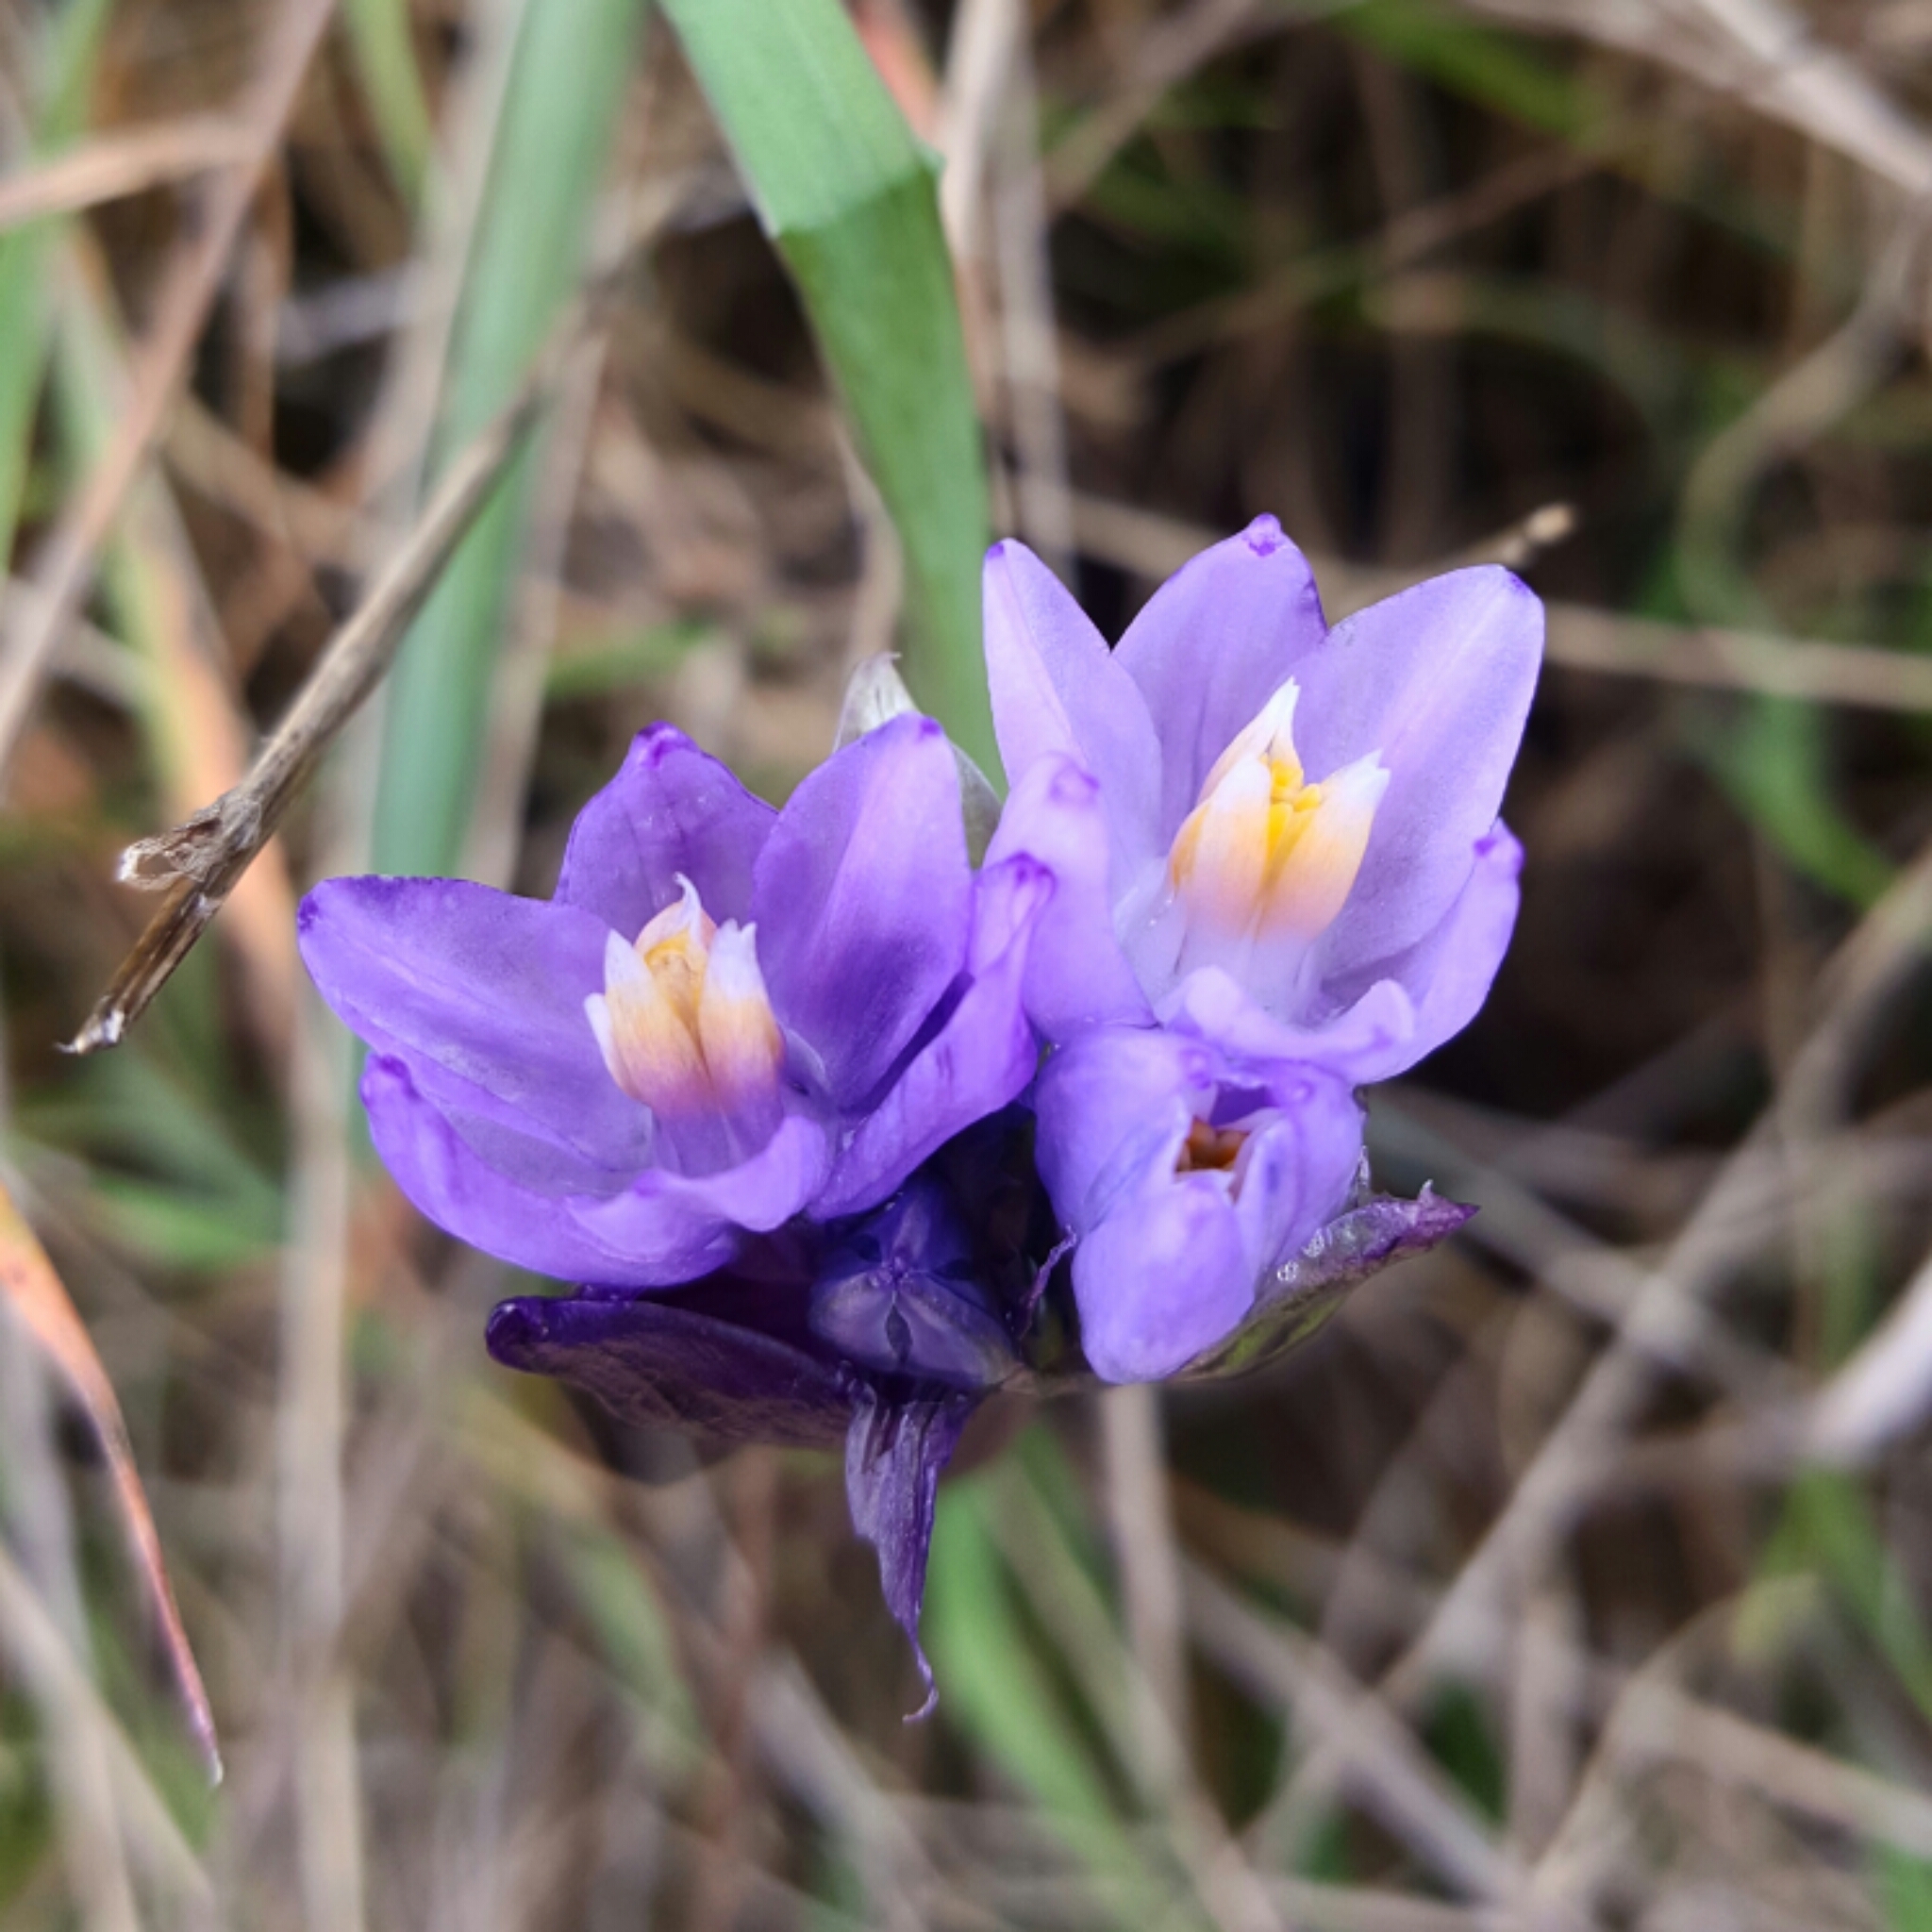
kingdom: Plantae
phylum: Tracheophyta
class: Liliopsida
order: Asparagales
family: Asparagaceae
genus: Dipterostemon
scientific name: Dipterostemon capitatus
